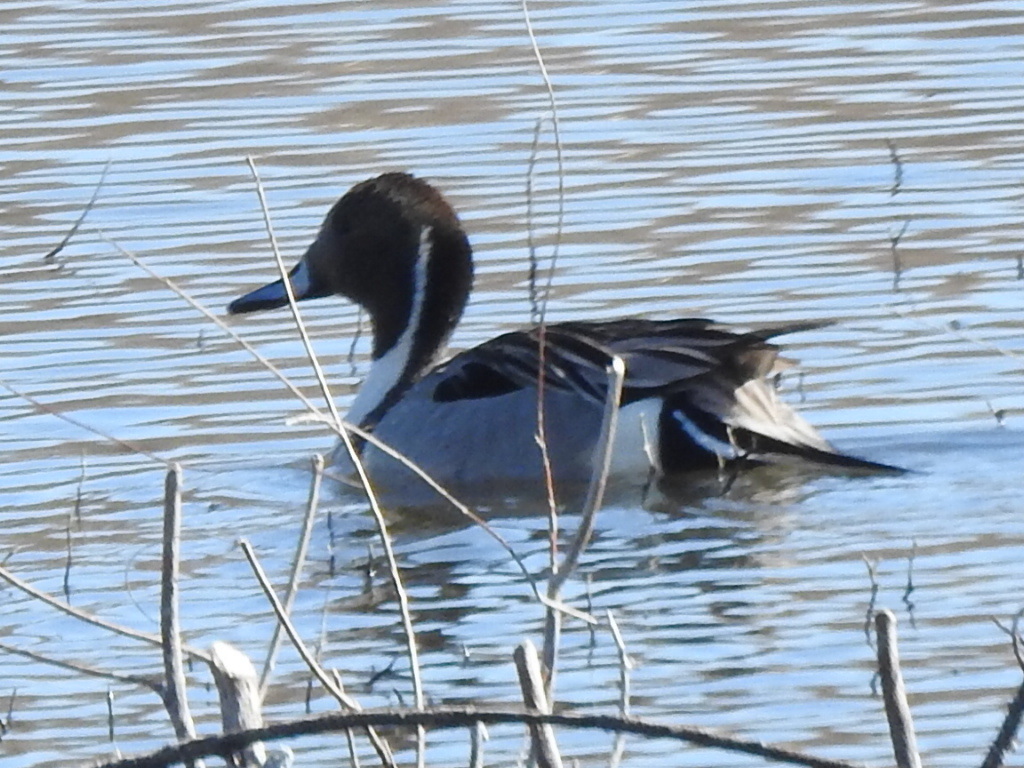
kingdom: Animalia
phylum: Chordata
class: Aves
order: Anseriformes
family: Anatidae
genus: Anas
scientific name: Anas acuta
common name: Northern pintail
